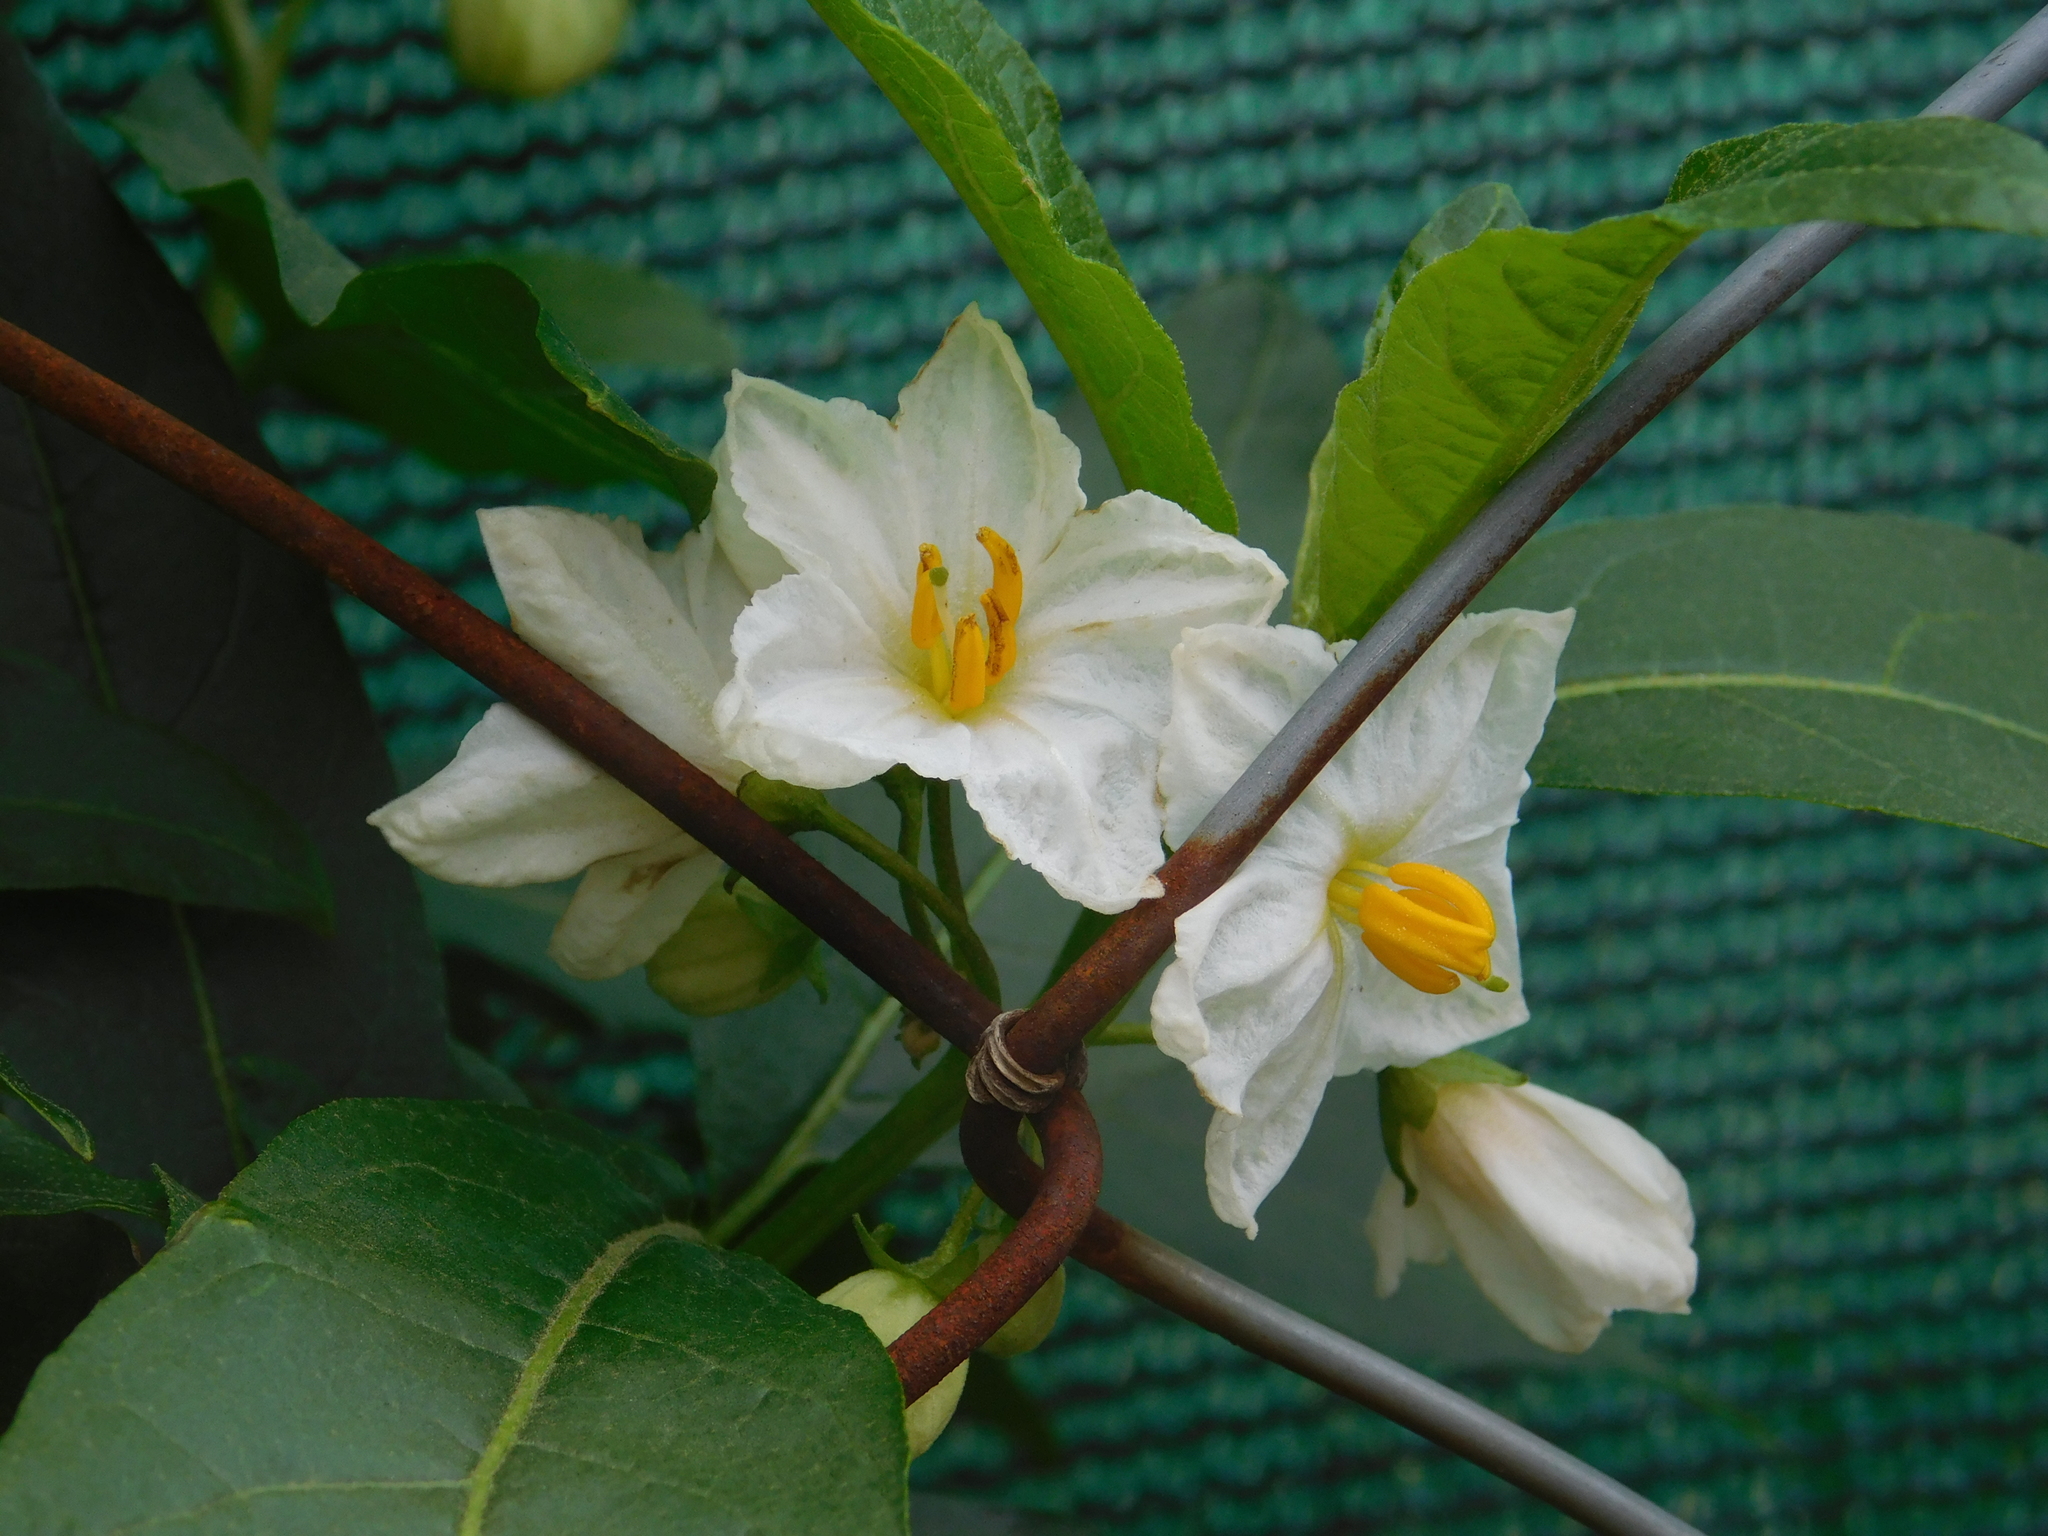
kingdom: Plantae
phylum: Tracheophyta
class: Magnoliopsida
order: Solanales
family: Solanaceae
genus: Solanum
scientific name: Solanum bonariense
